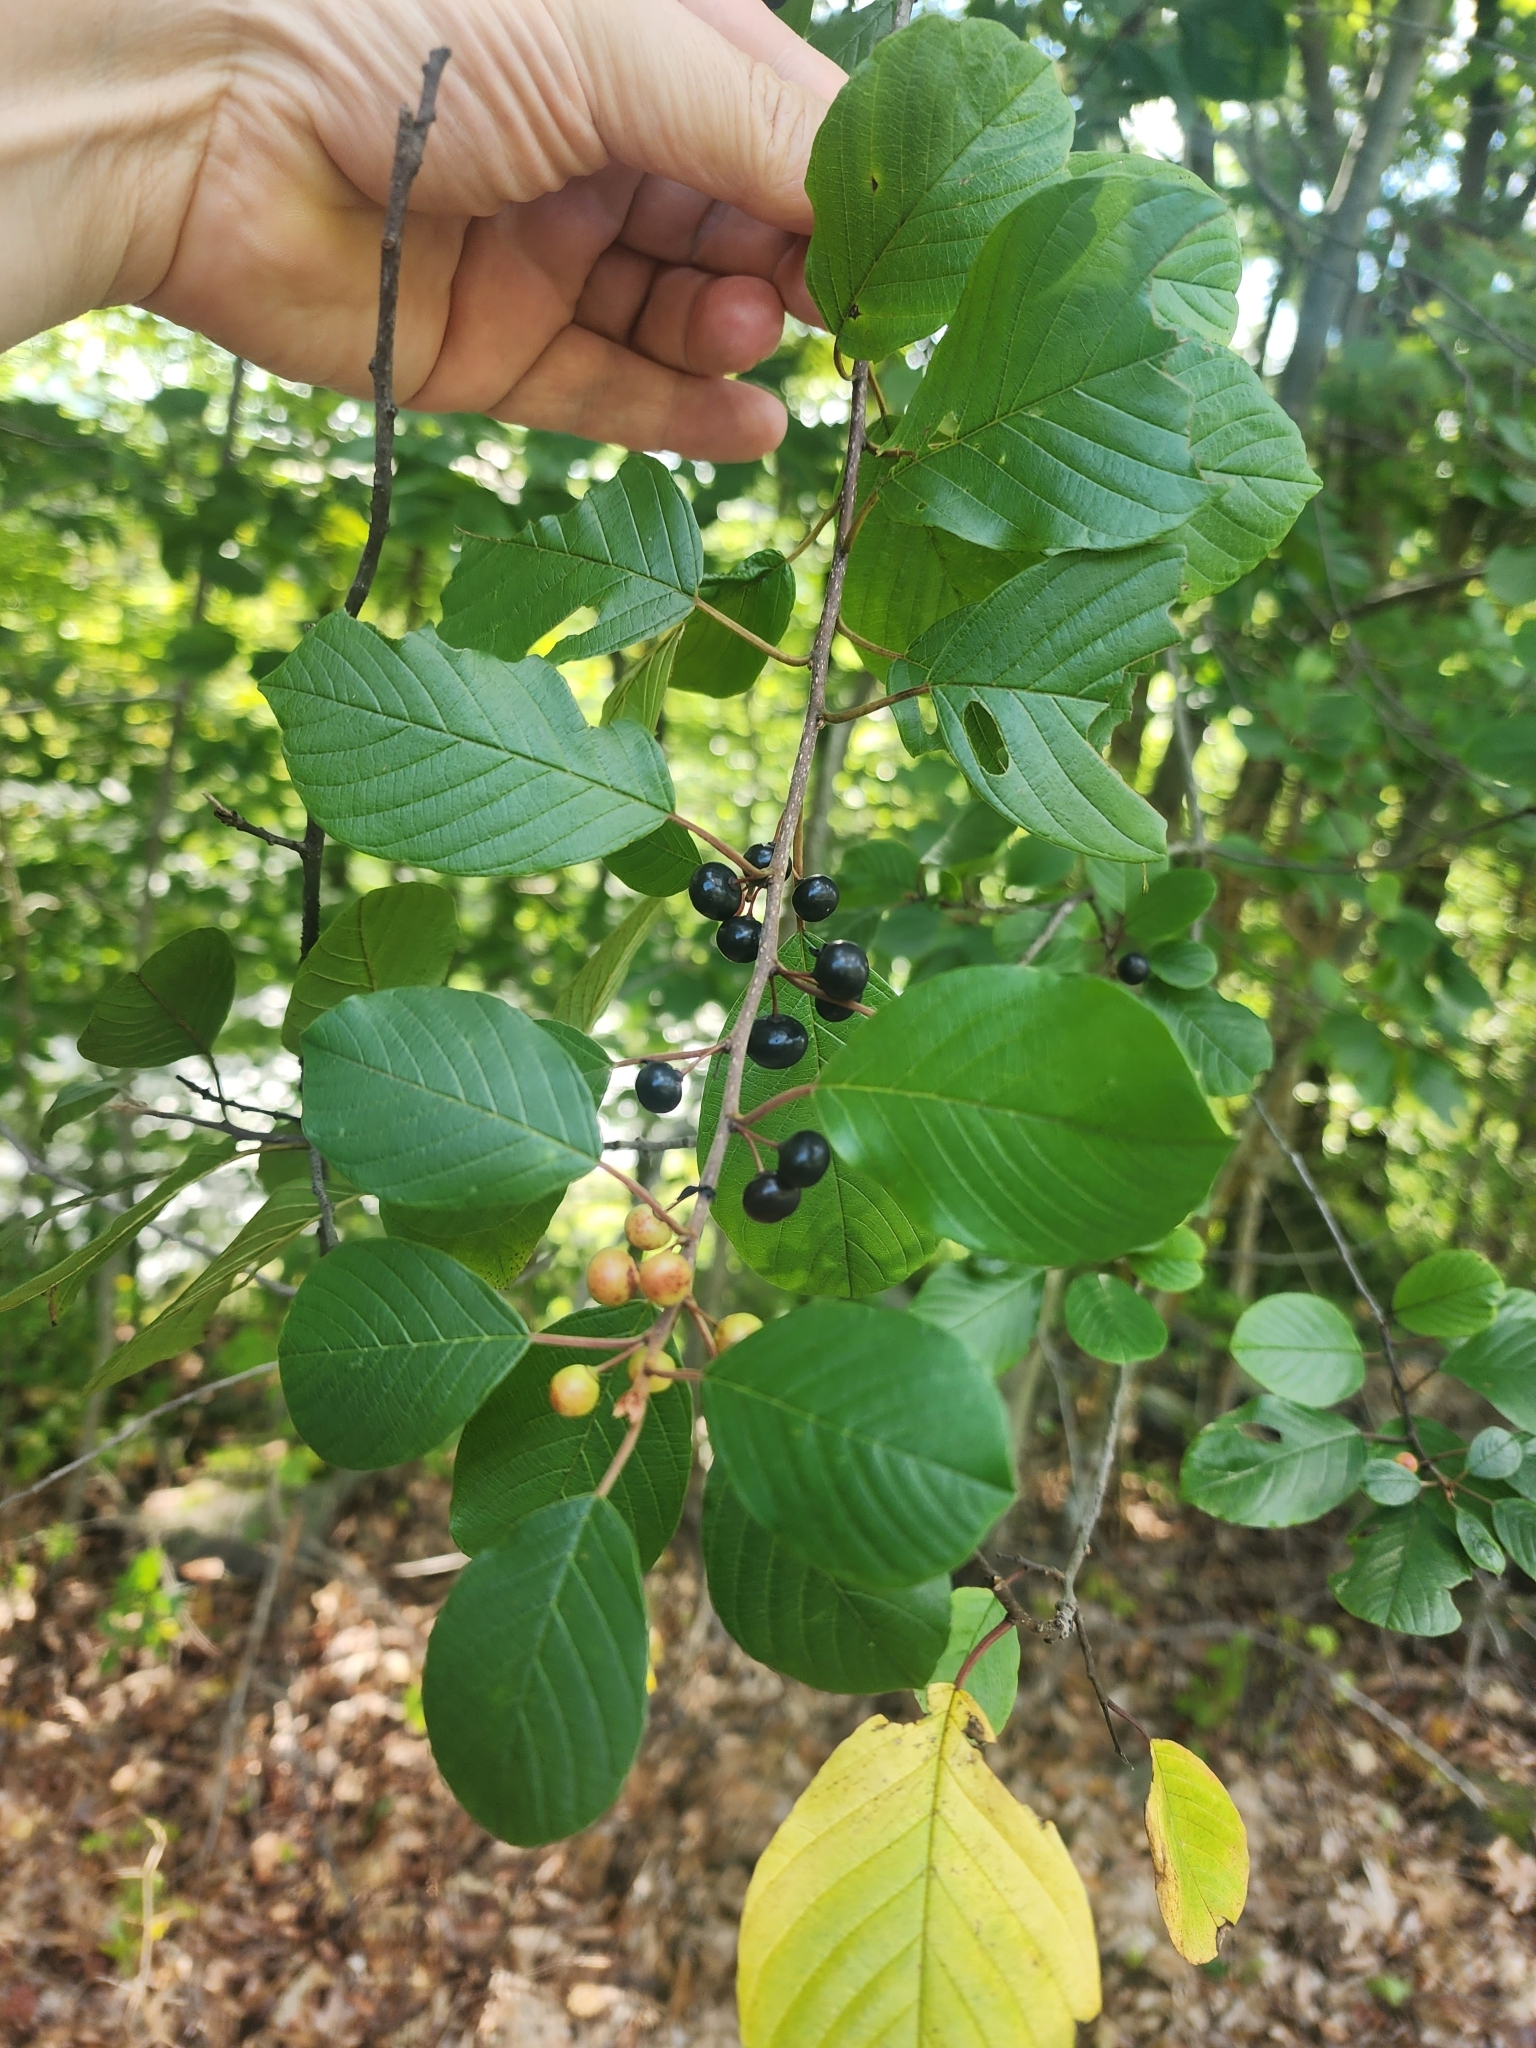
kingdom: Plantae
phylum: Tracheophyta
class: Magnoliopsida
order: Rosales
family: Rhamnaceae
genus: Frangula
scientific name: Frangula alnus
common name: Alder buckthorn
